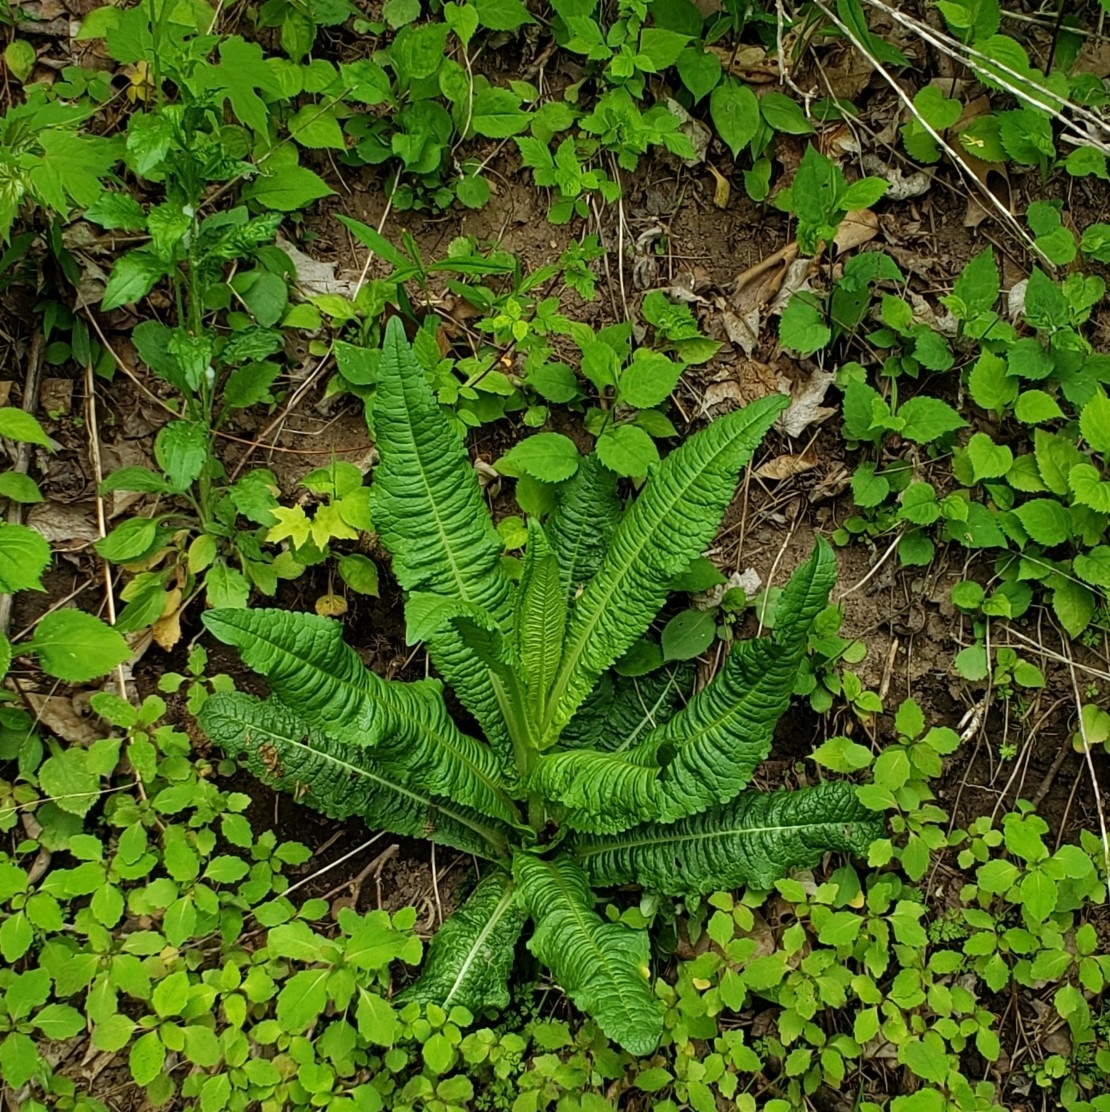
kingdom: Plantae
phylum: Tracheophyta
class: Magnoliopsida
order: Dipsacales
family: Caprifoliaceae
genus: Dipsacus
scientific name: Dipsacus fullonum
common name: Teasel
